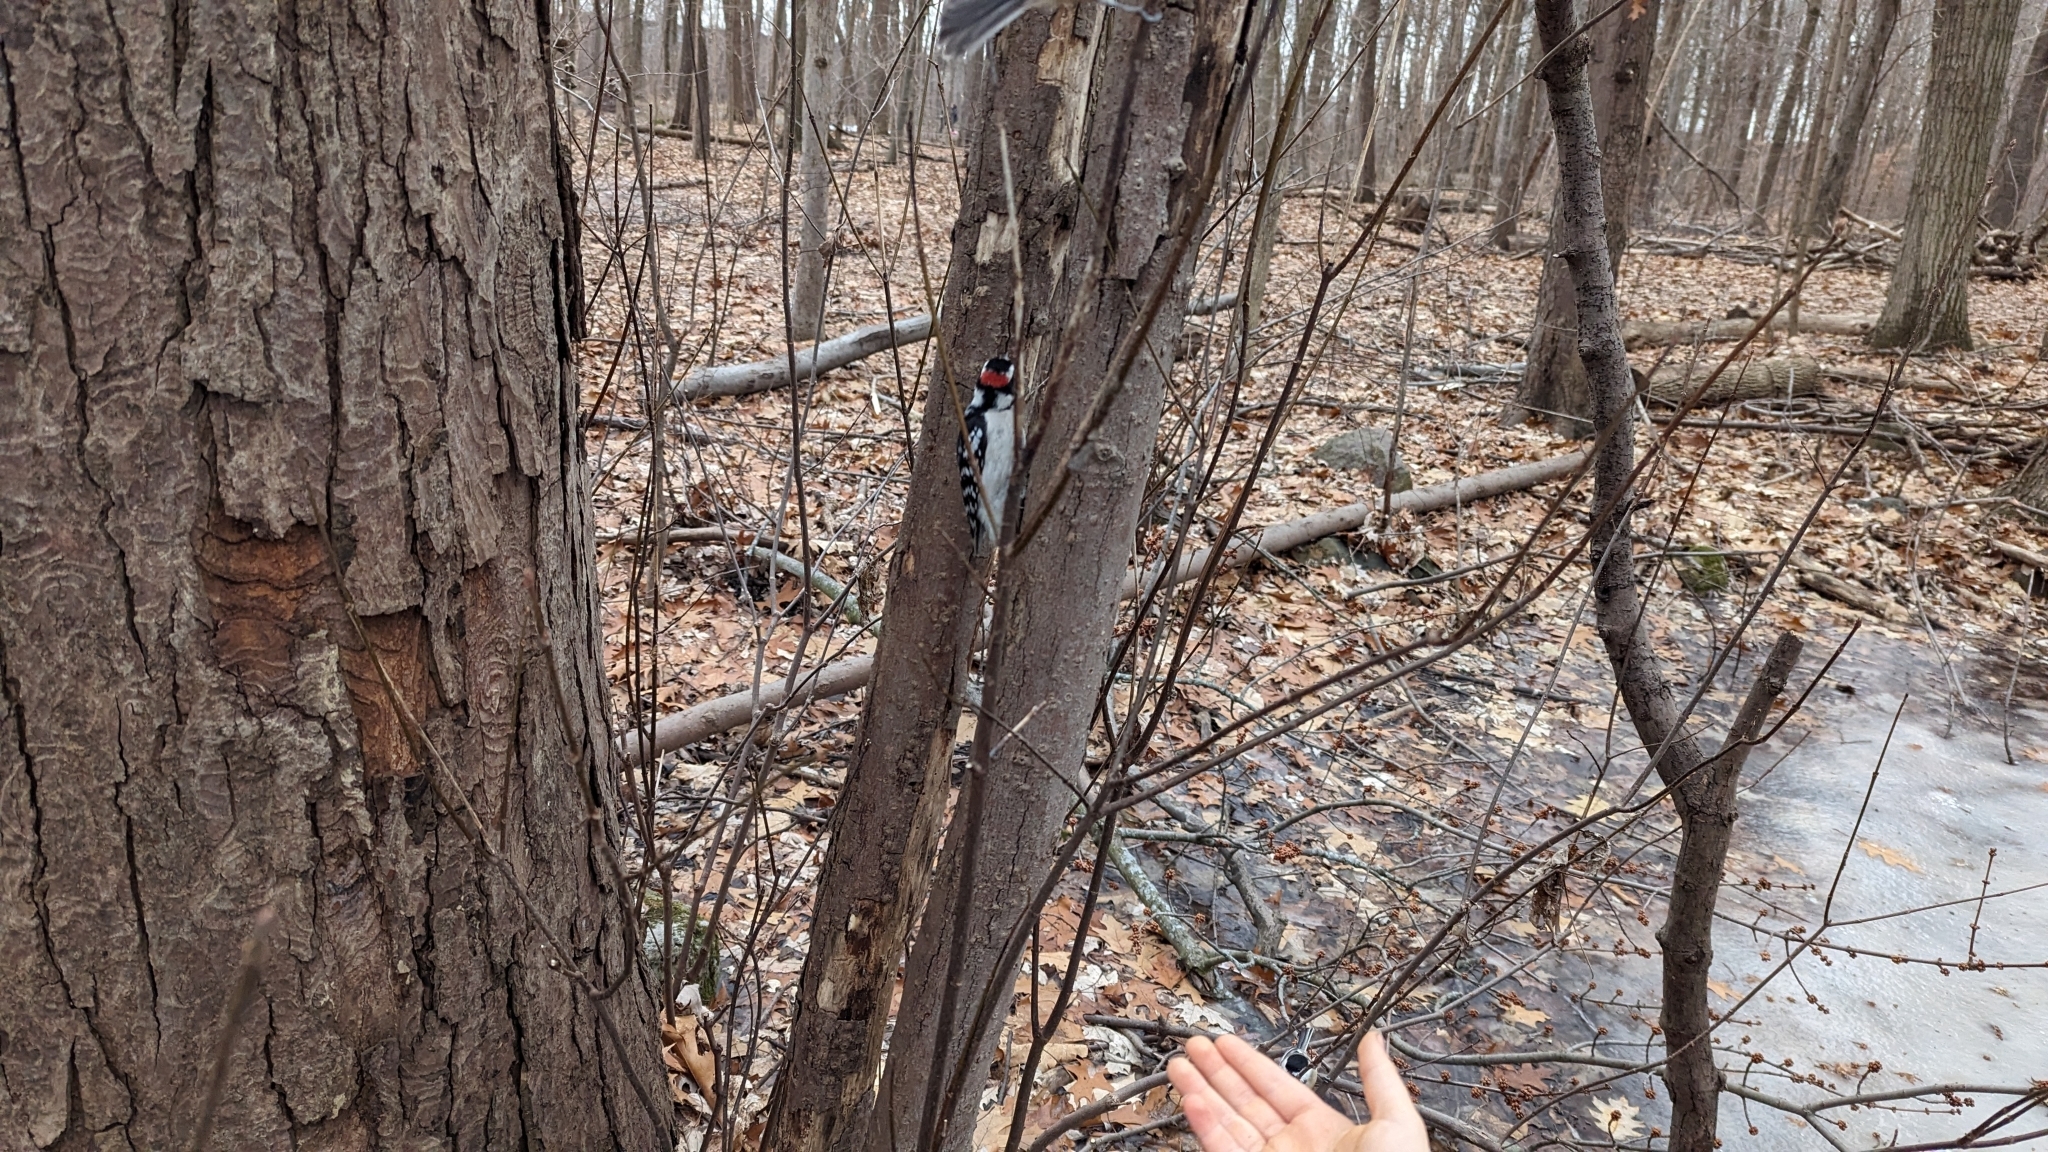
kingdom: Animalia
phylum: Chordata
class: Aves
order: Piciformes
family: Picidae
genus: Dryobates
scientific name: Dryobates pubescens
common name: Downy woodpecker
